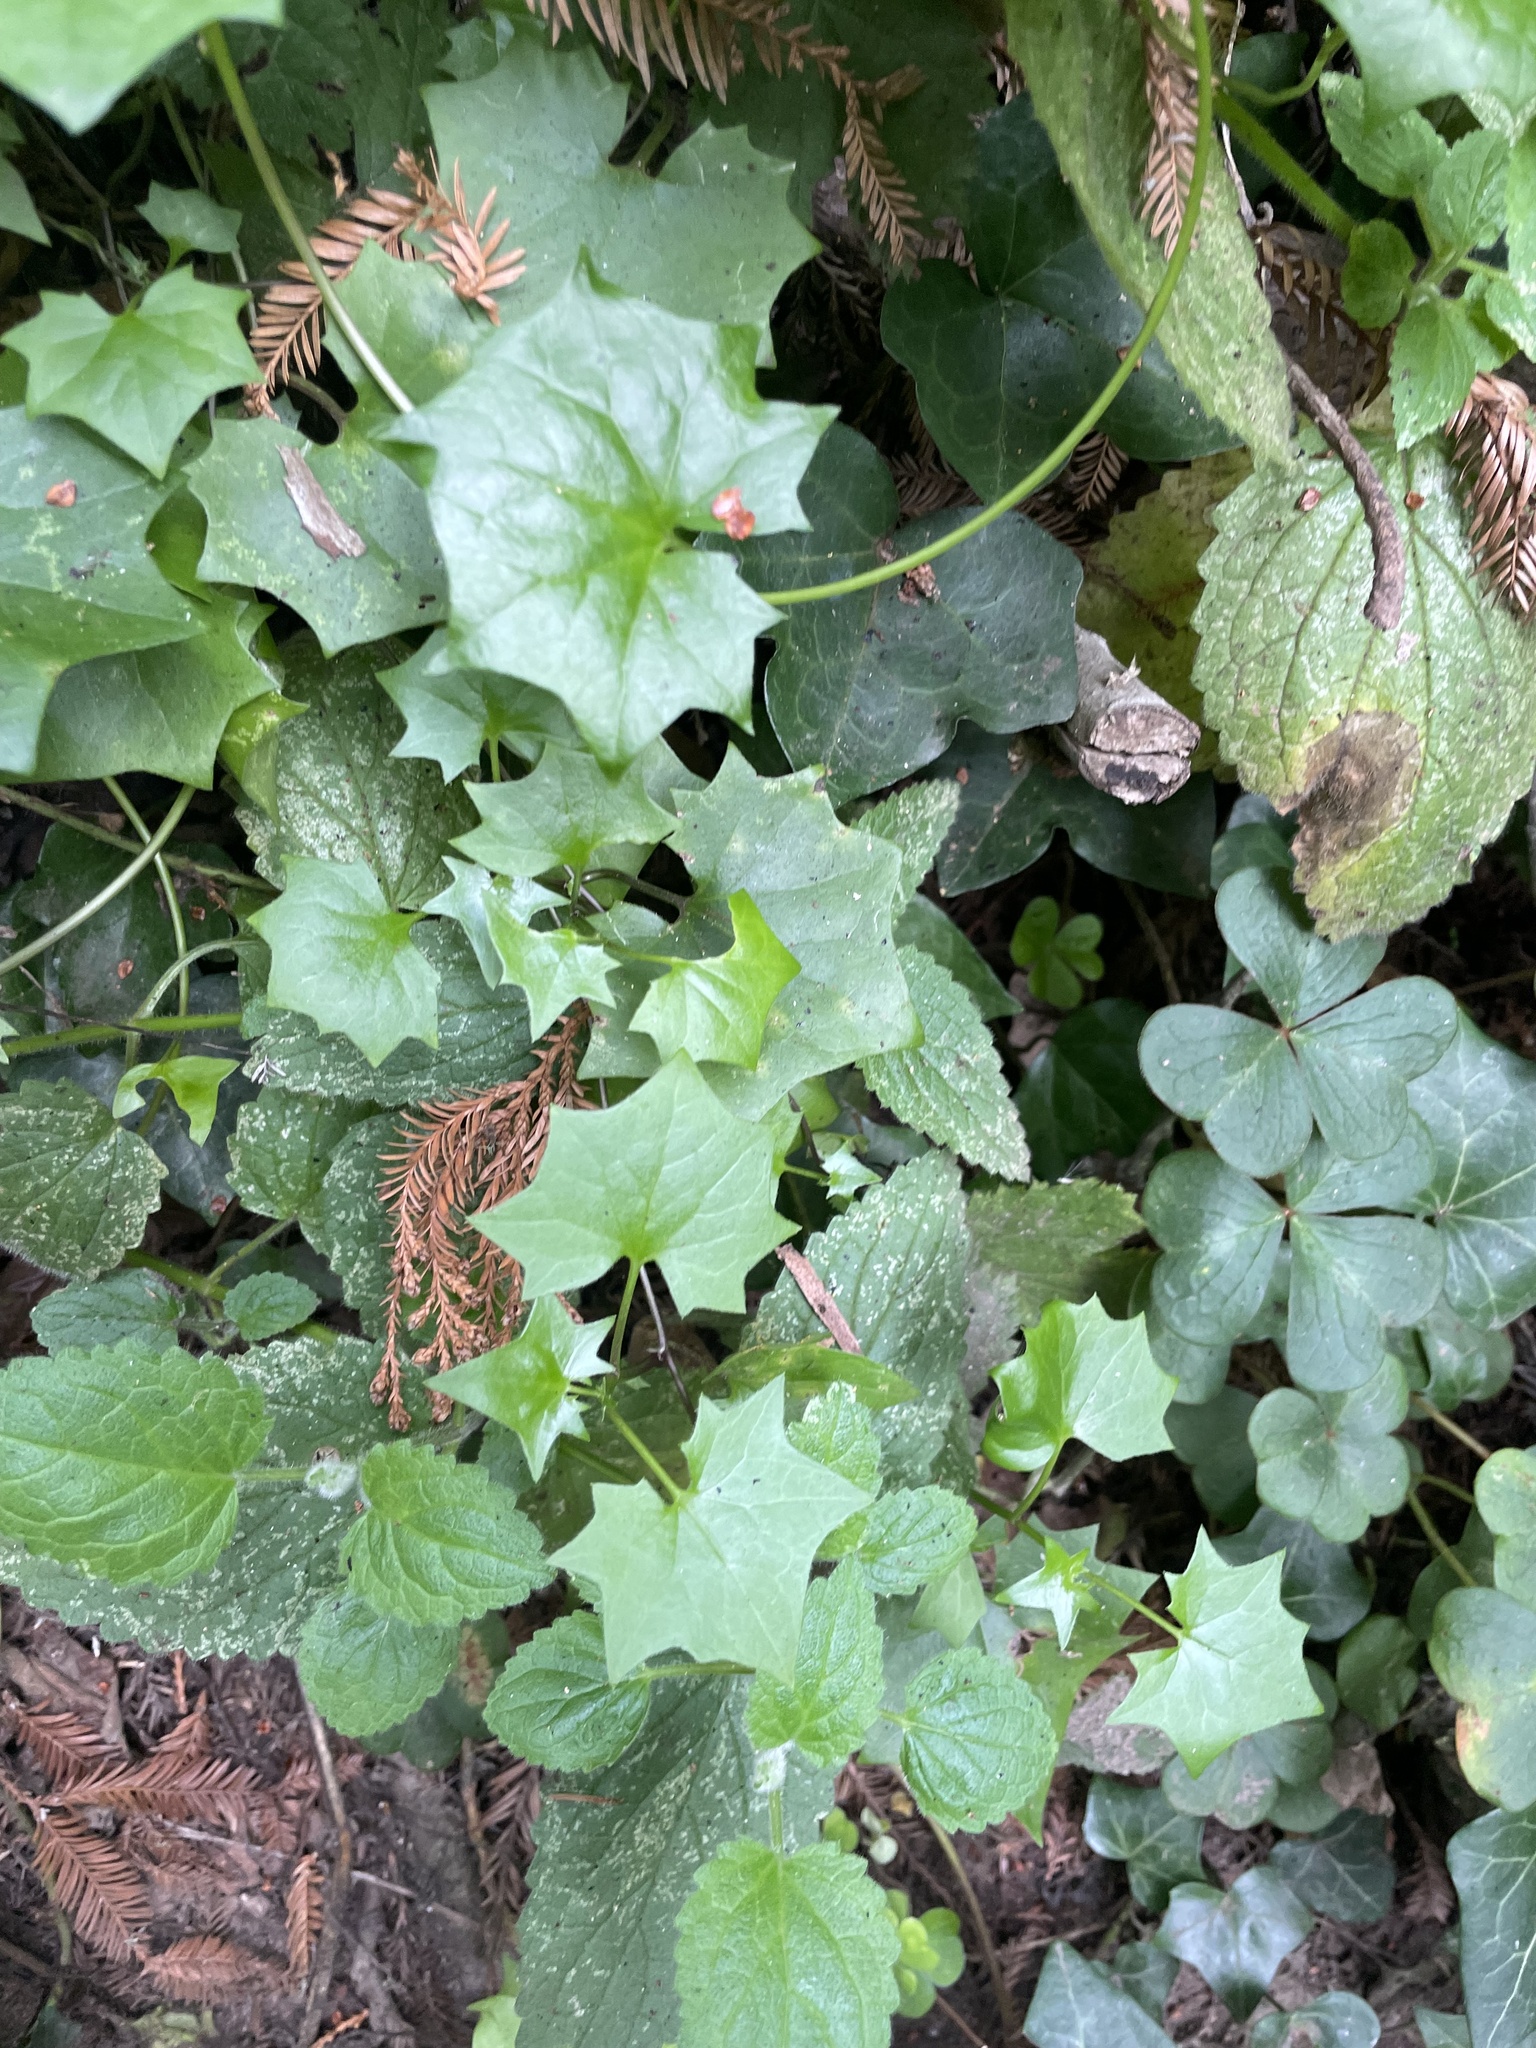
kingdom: Plantae
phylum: Tracheophyta
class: Magnoliopsida
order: Asterales
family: Asteraceae
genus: Delairea
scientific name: Delairea odorata
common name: Cape-ivy
